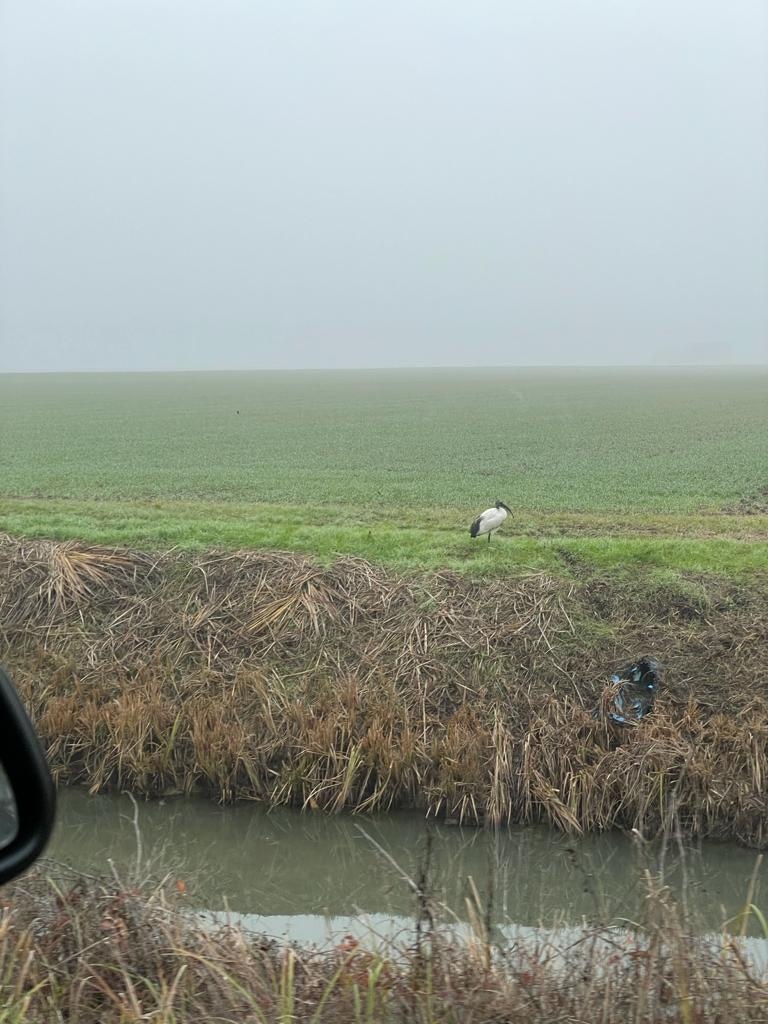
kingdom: Animalia
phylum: Chordata
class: Aves
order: Pelecaniformes
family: Threskiornithidae
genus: Threskiornis
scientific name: Threskiornis aethiopicus
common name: Sacred ibis
